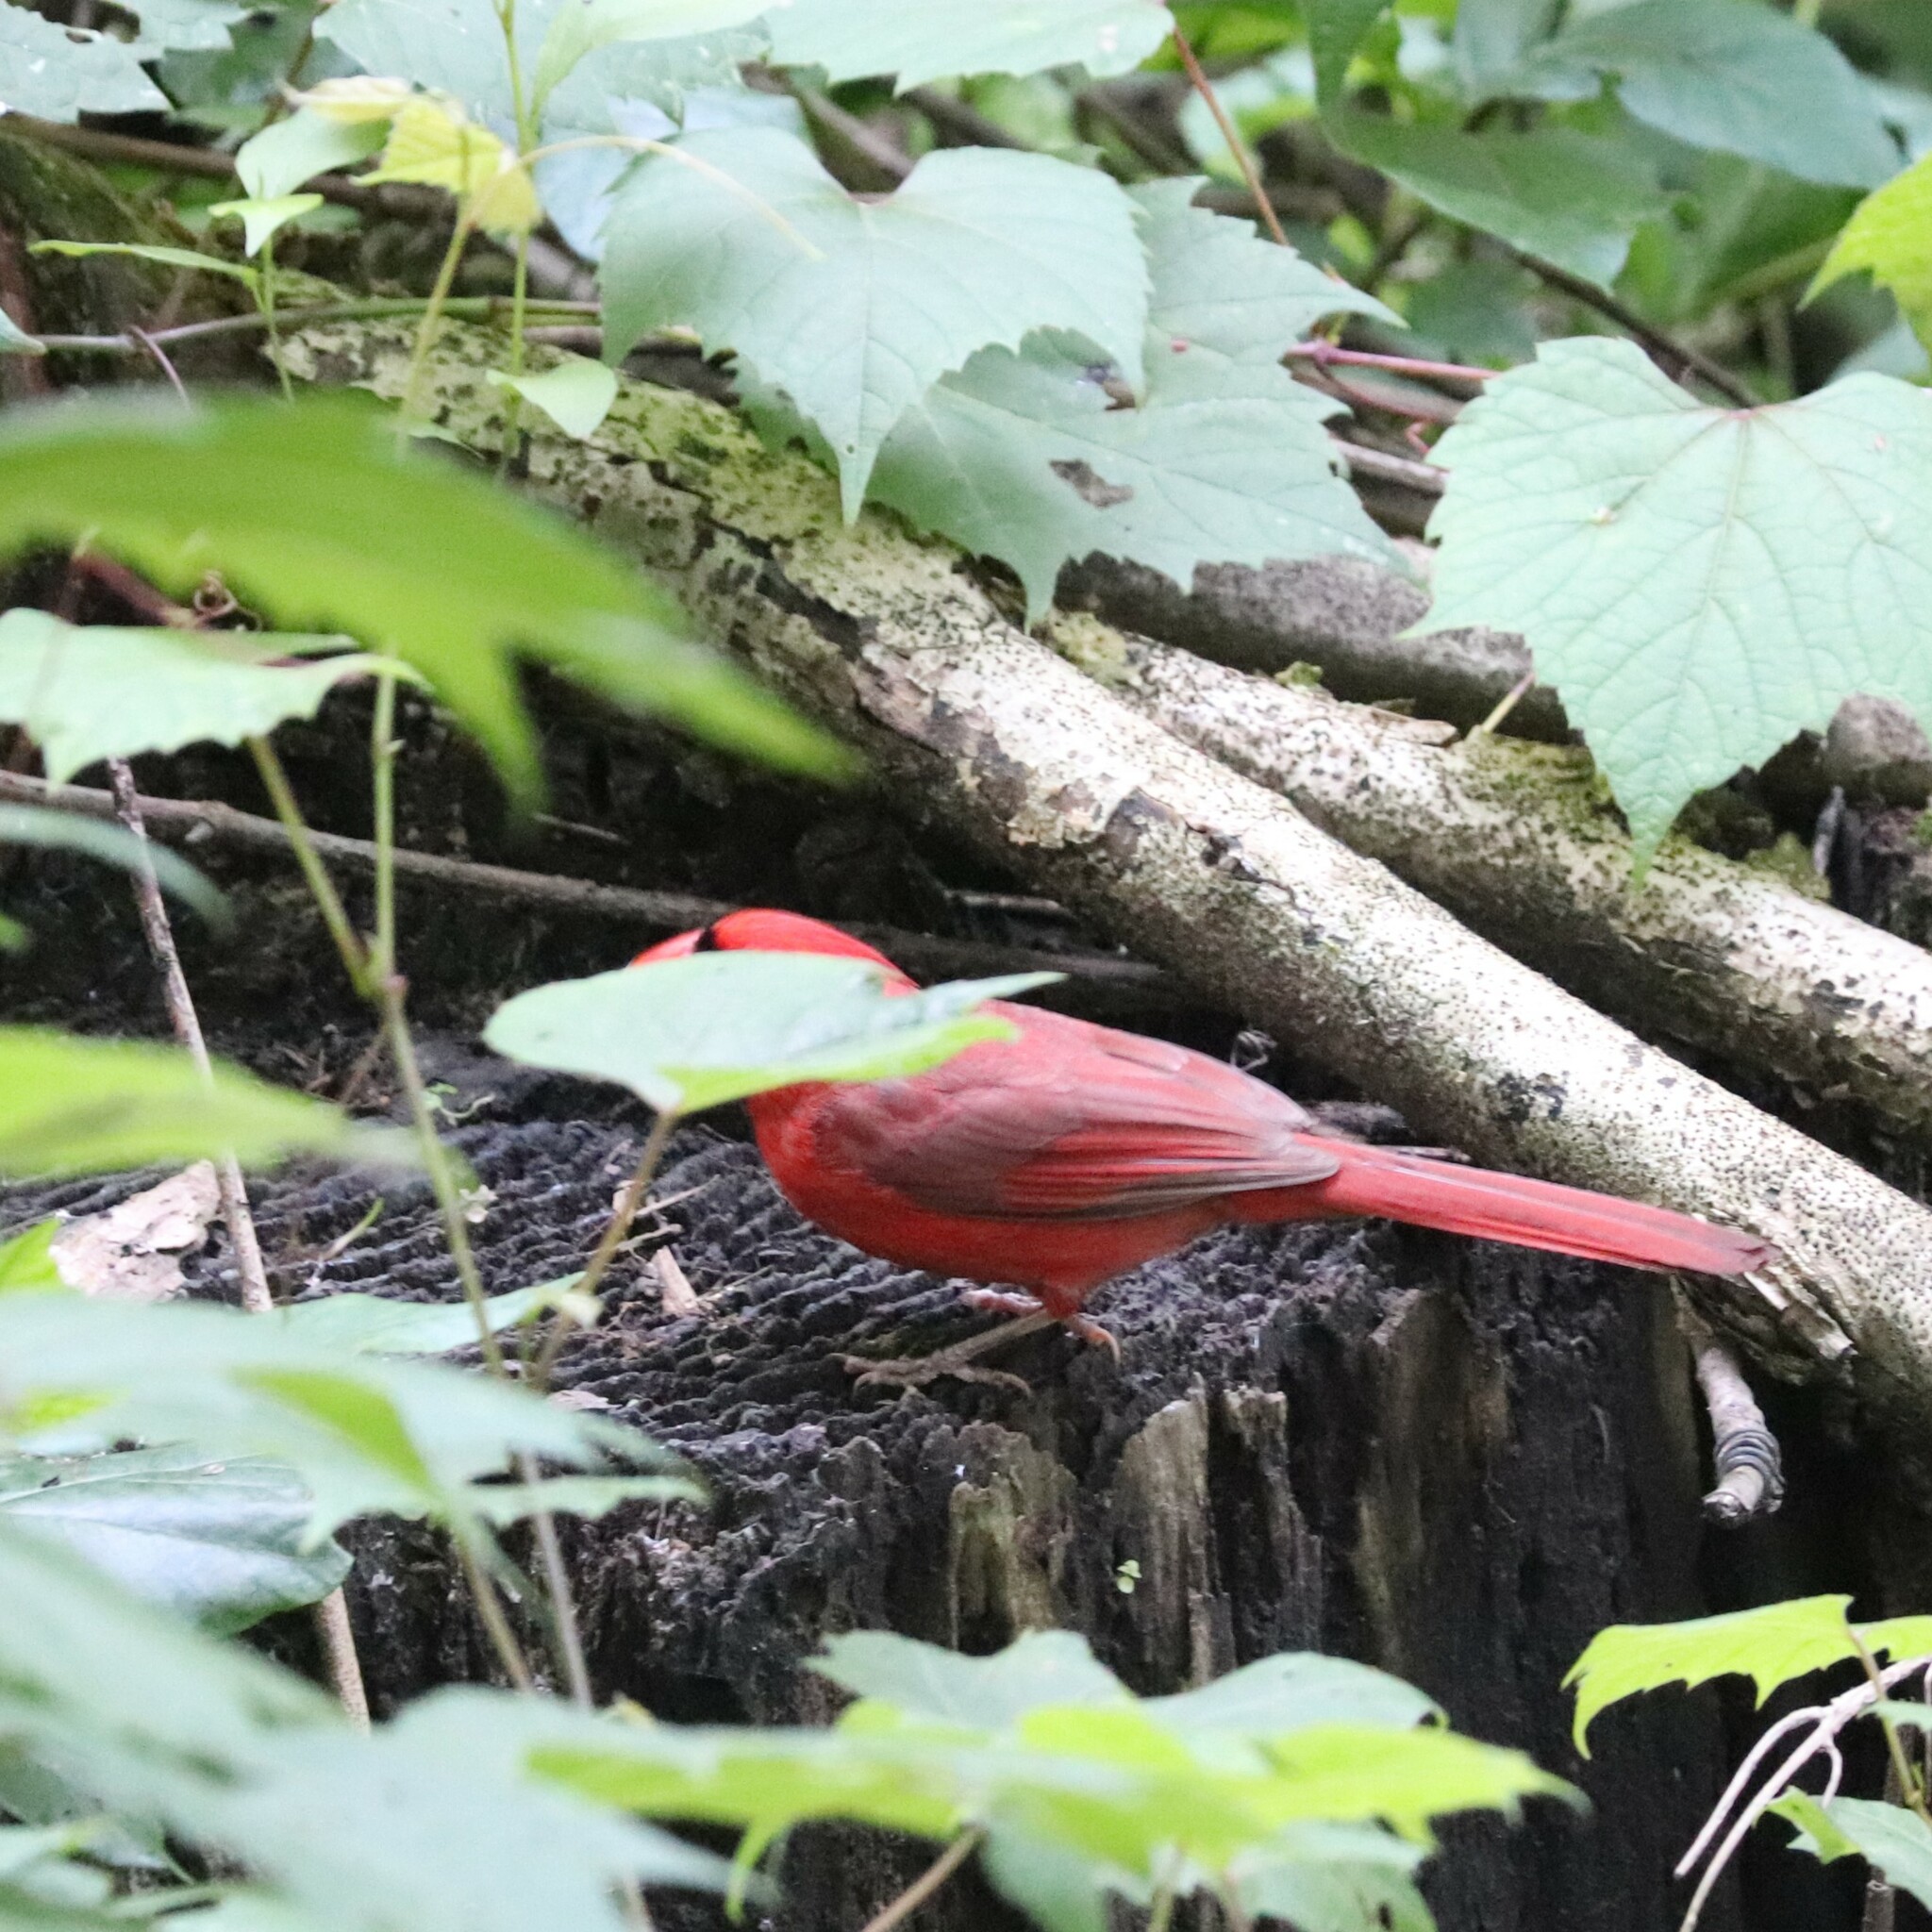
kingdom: Animalia
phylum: Chordata
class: Aves
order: Passeriformes
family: Cardinalidae
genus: Cardinalis
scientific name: Cardinalis cardinalis
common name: Northern cardinal
